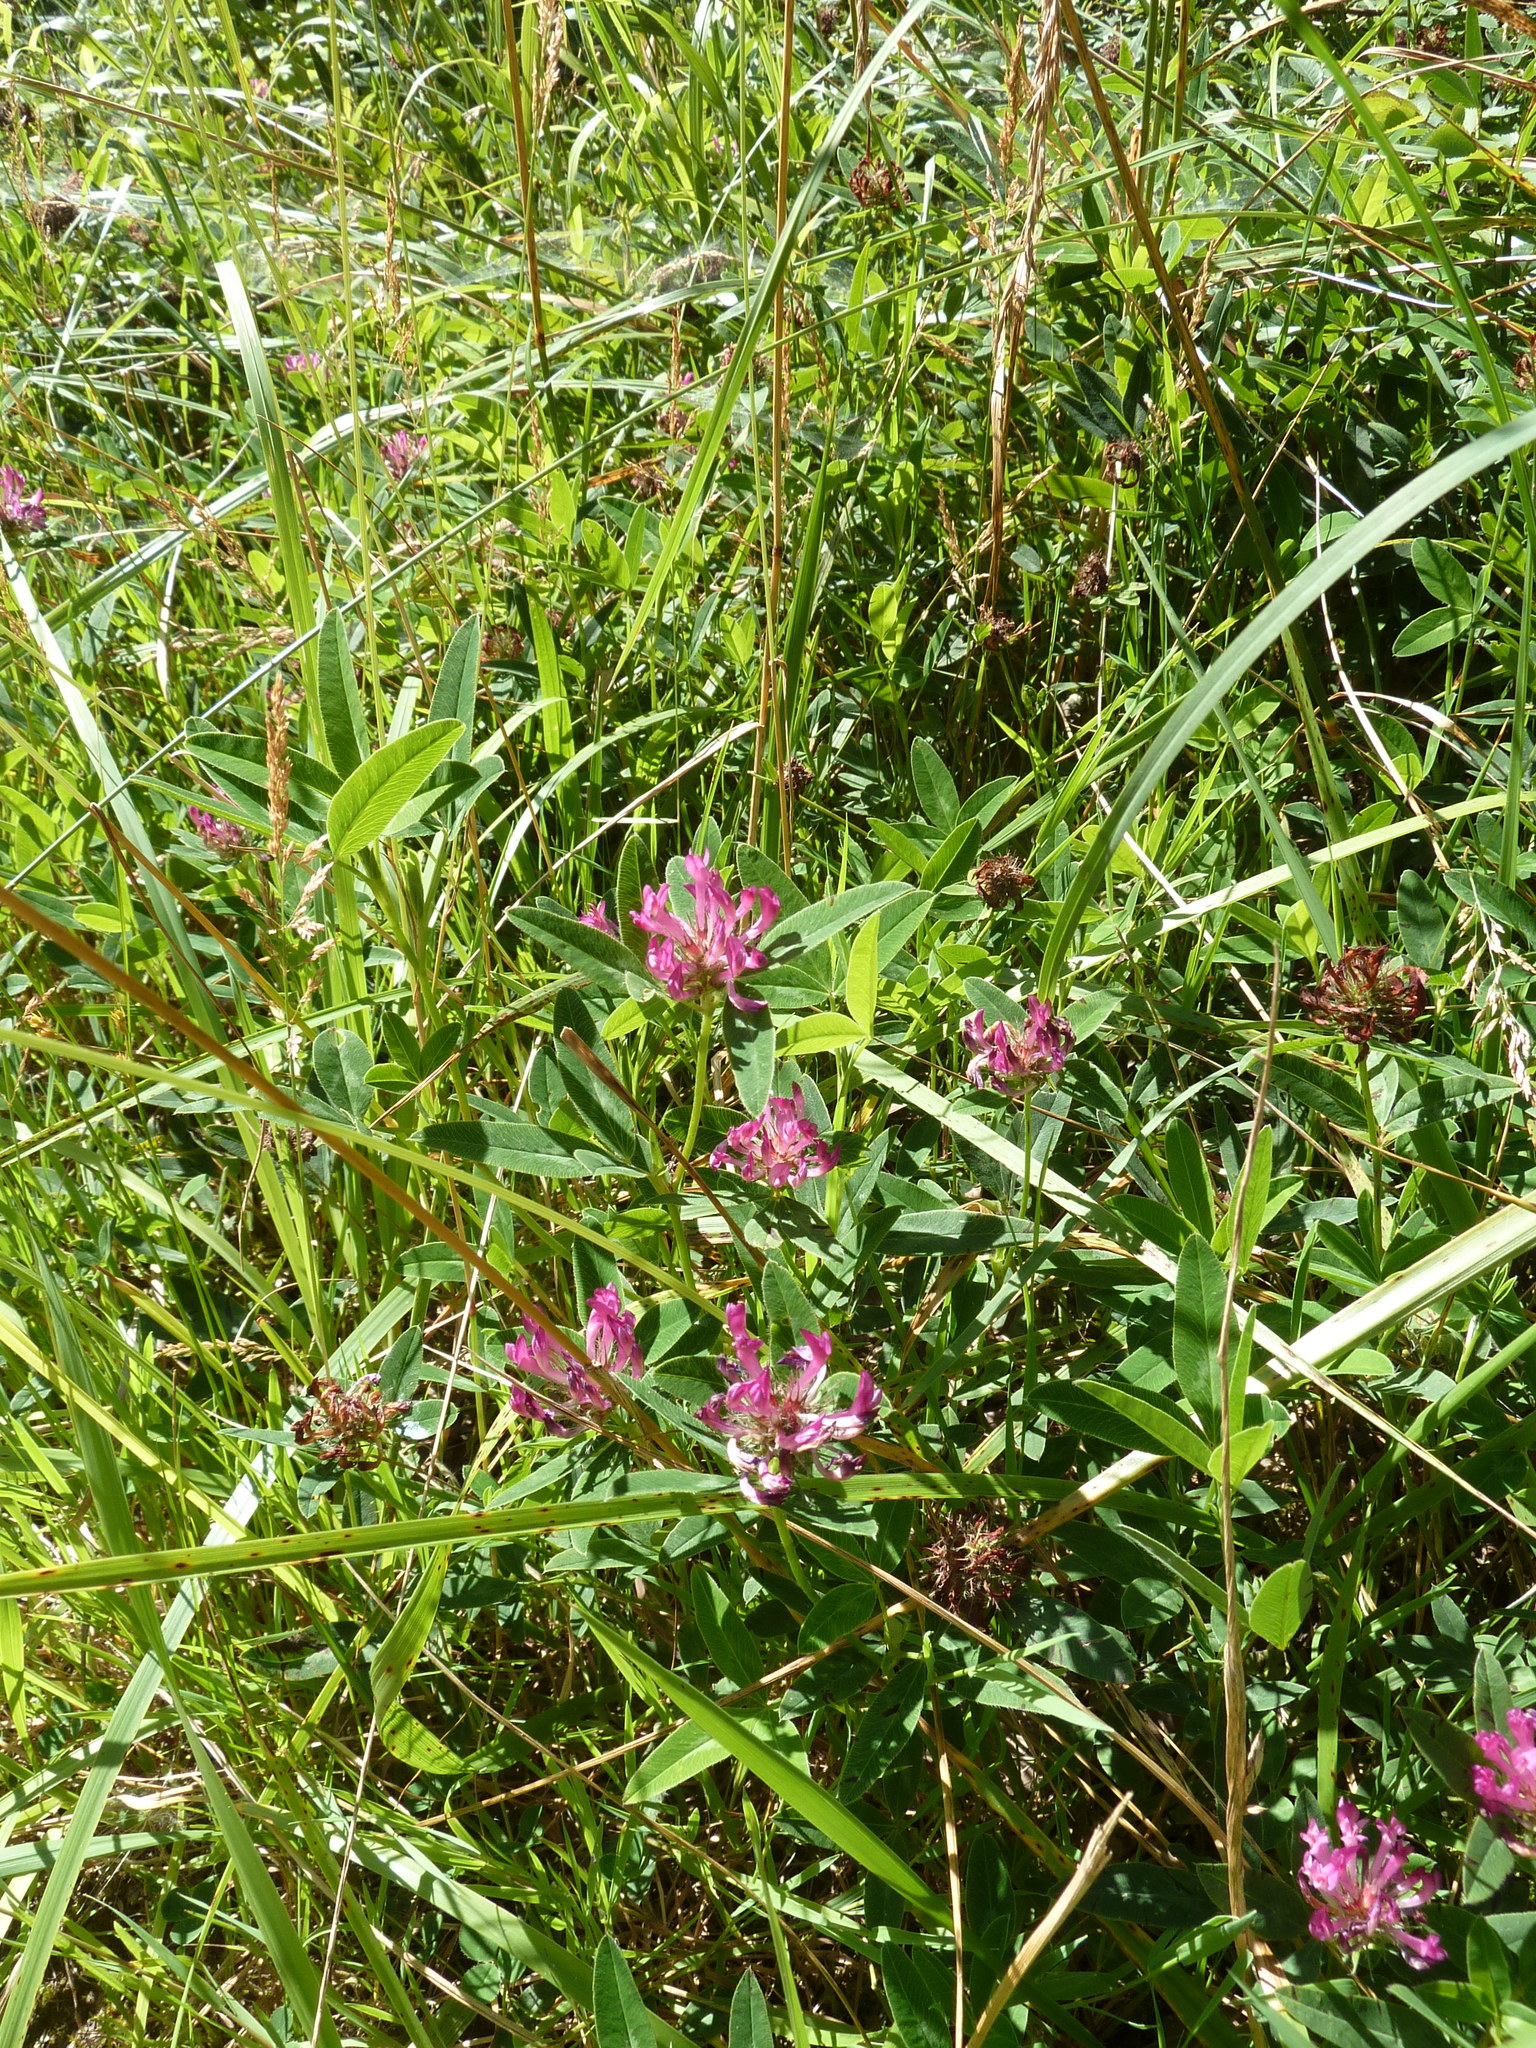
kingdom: Plantae
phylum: Tracheophyta
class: Magnoliopsida
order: Fabales
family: Fabaceae
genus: Trifolium
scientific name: Trifolium pratense
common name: Red clover
